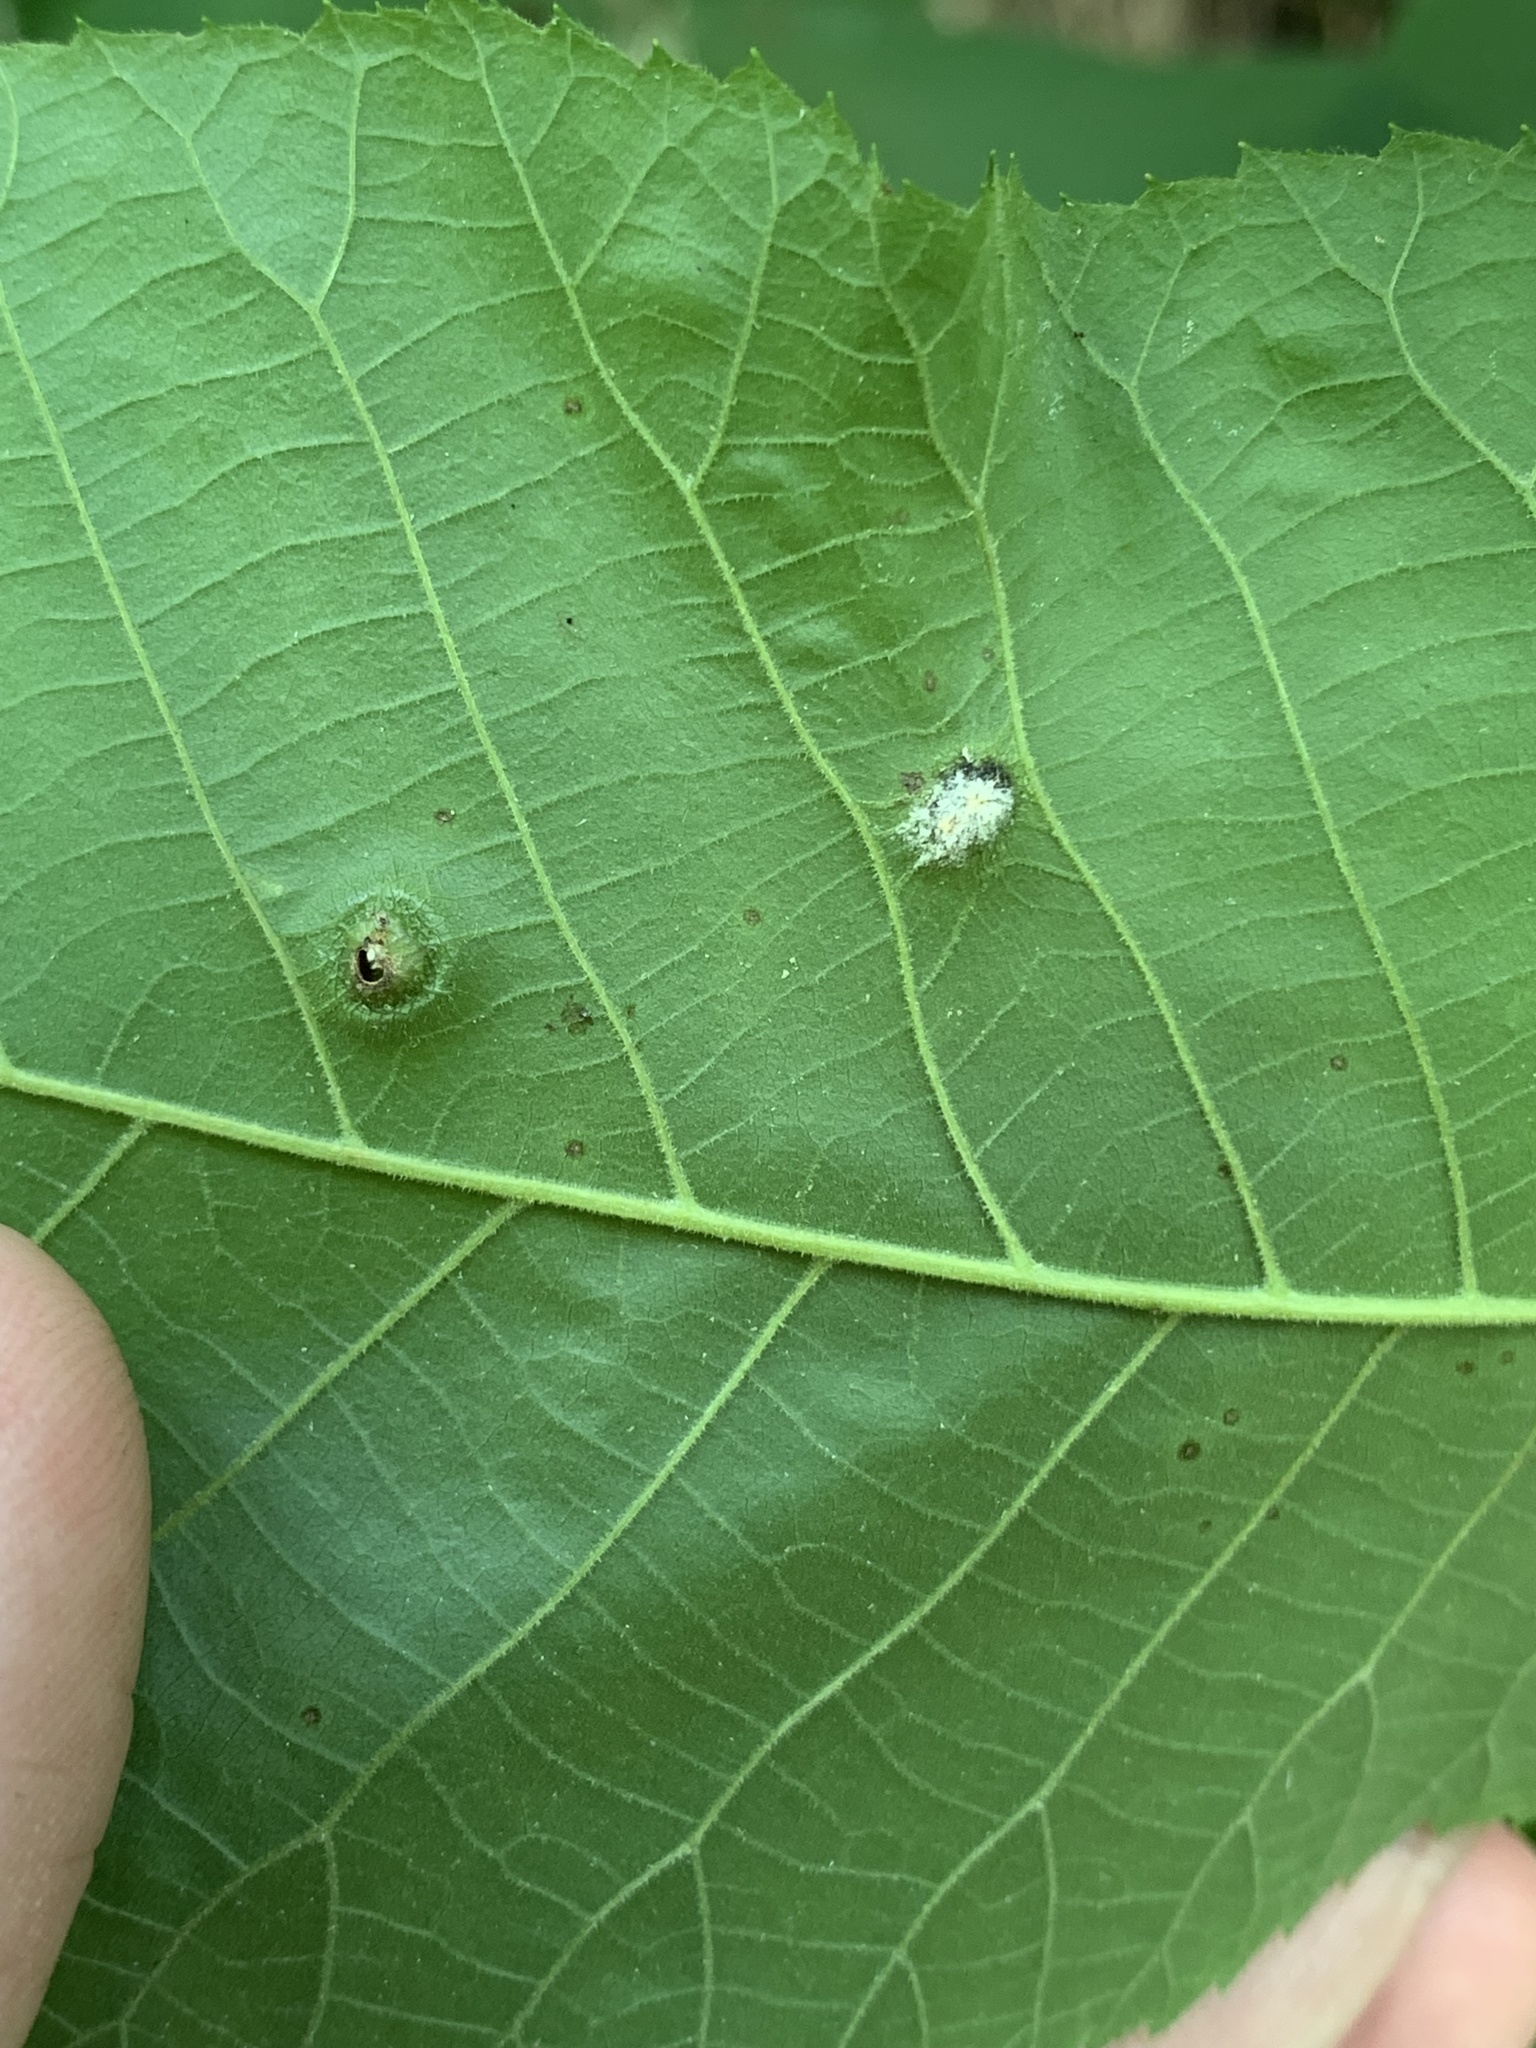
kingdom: Animalia
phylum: Arthropoda
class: Insecta
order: Hemiptera
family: Phylloxeridae
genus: Phylloxera
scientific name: Phylloxera caryae-semen
